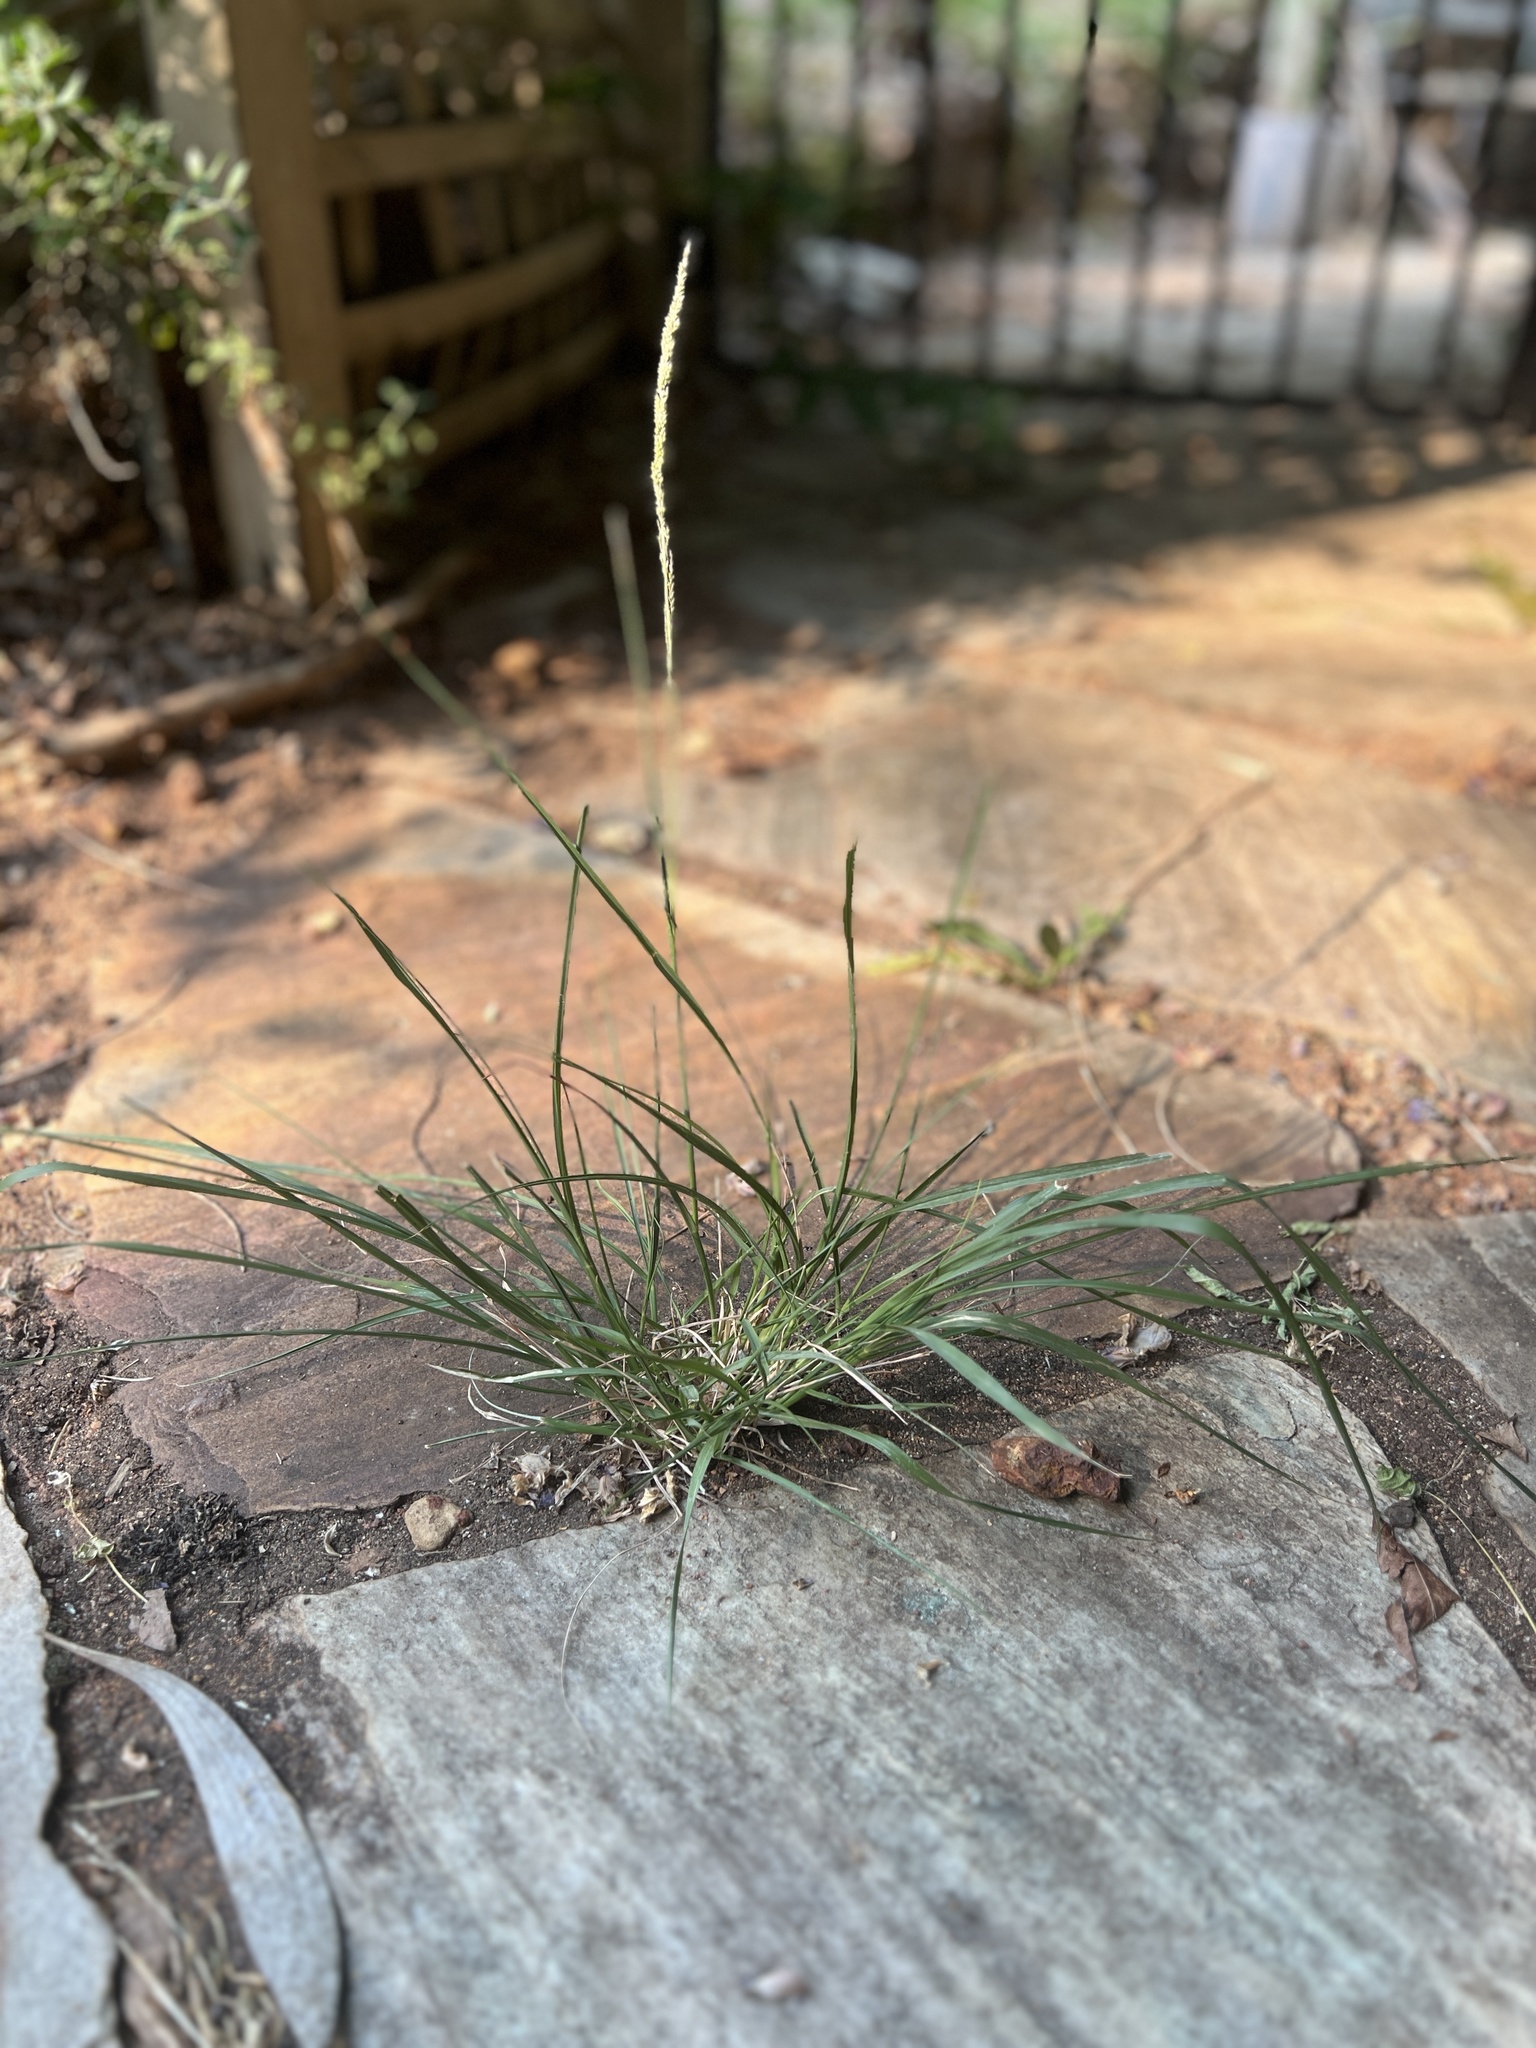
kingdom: Plantae
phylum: Tracheophyta
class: Liliopsida
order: Poales
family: Poaceae
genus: Sporobolus
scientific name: Sporobolus africanus
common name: African dropseed
